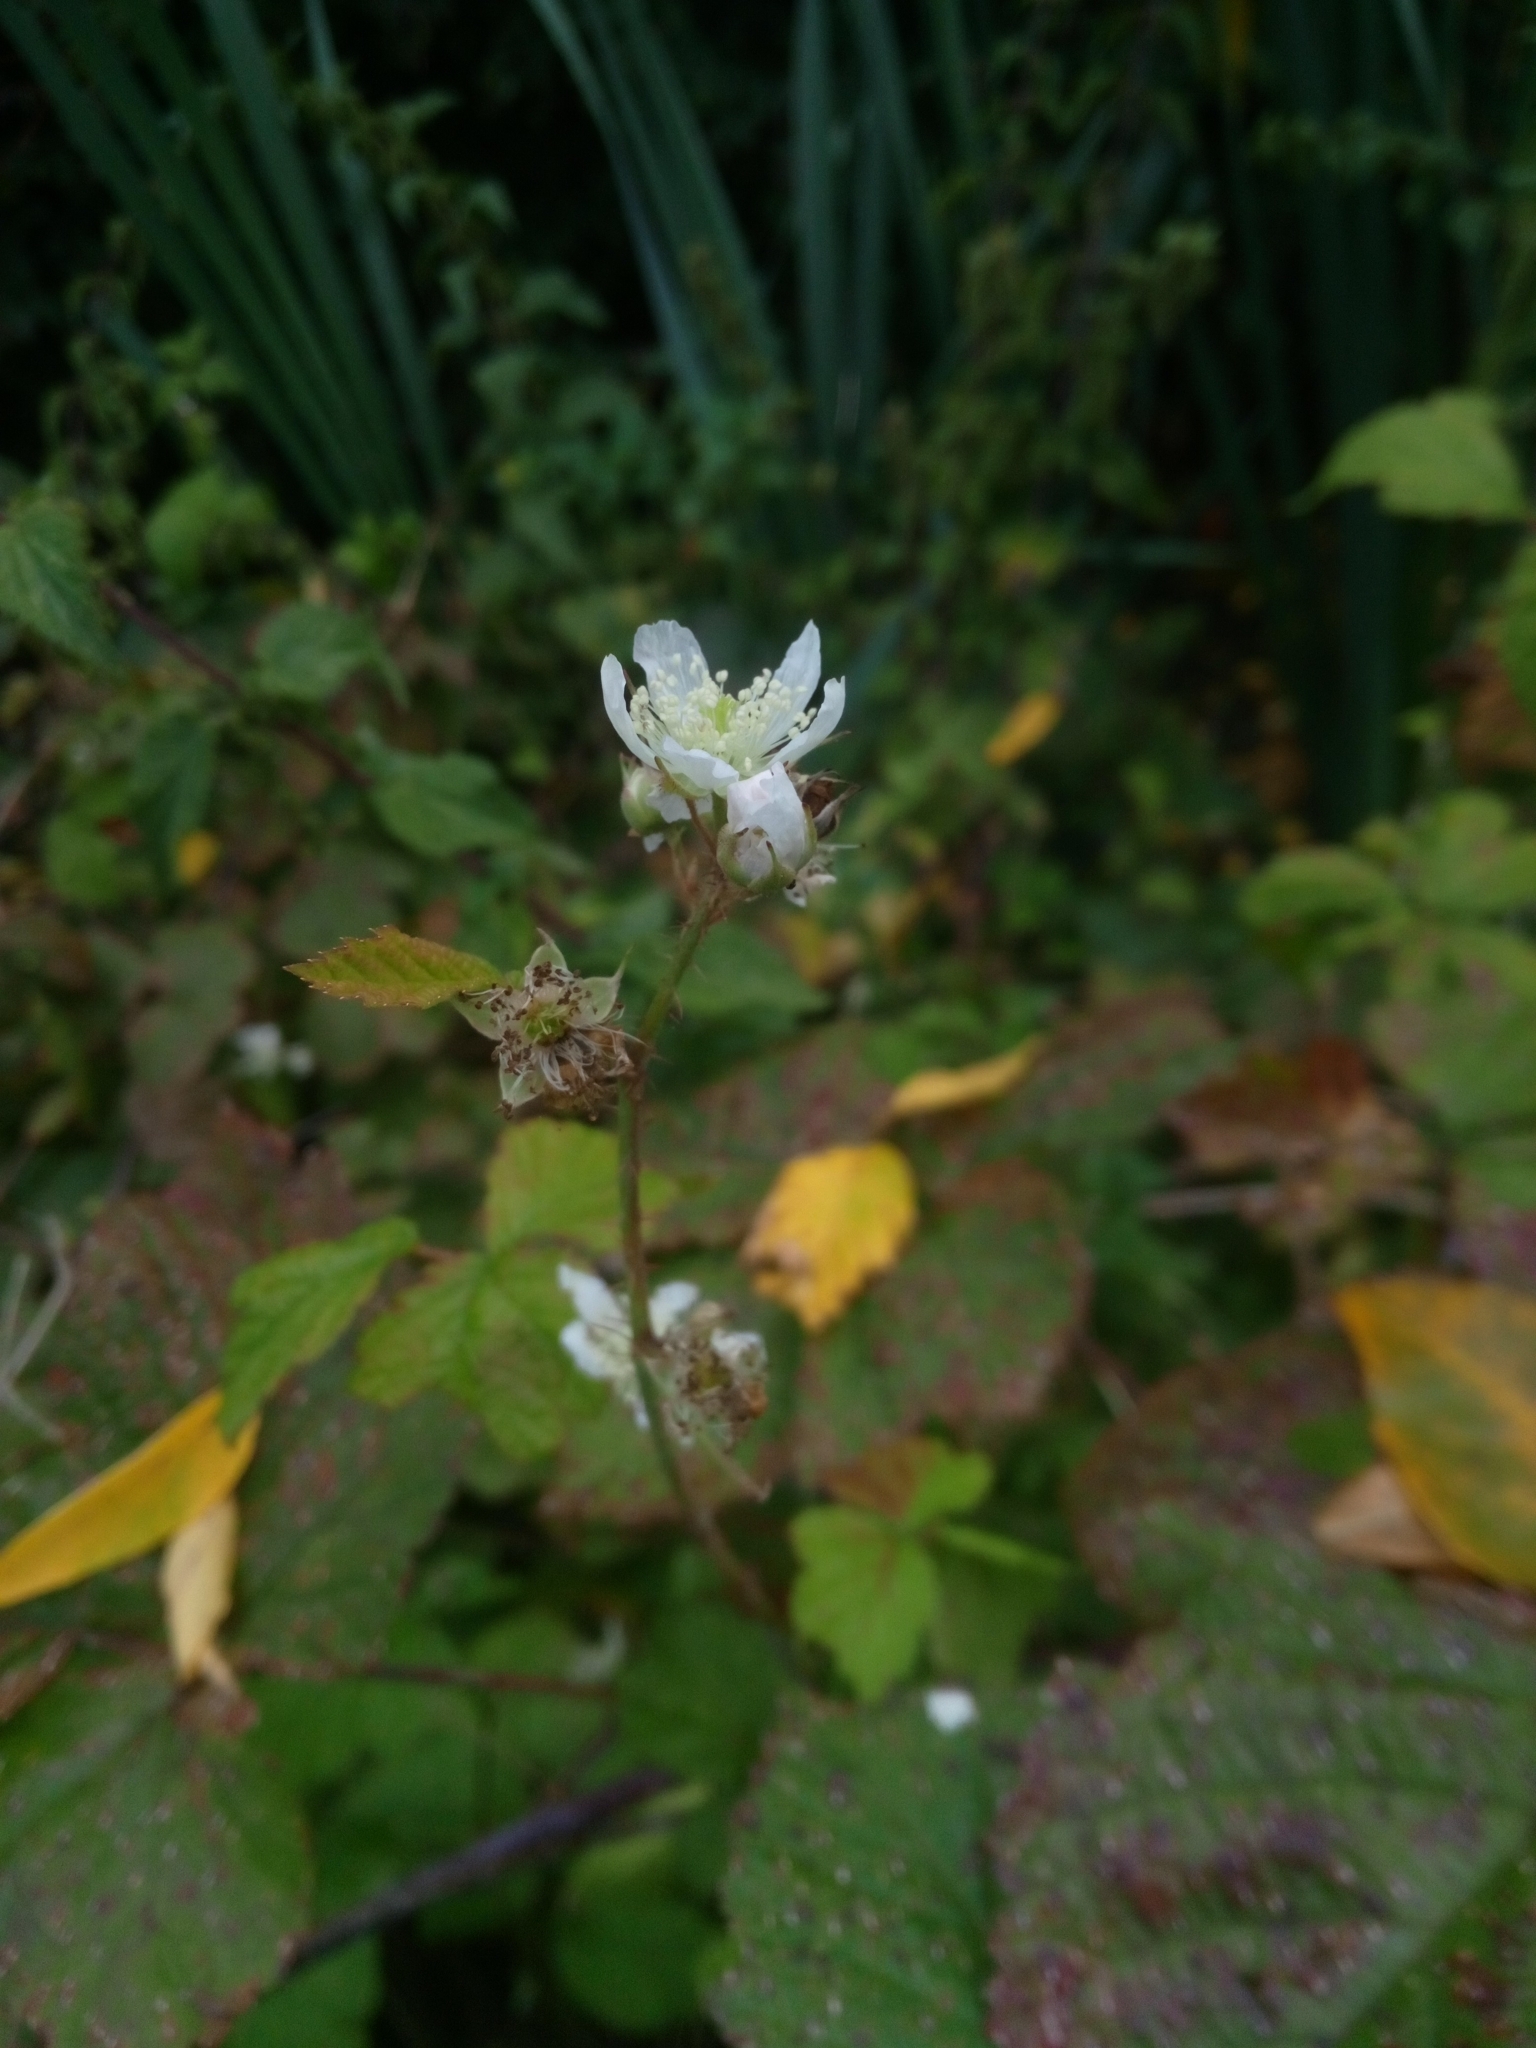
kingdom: Plantae
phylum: Tracheophyta
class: Magnoliopsida
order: Rosales
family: Rosaceae
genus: Rubus
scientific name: Rubus caesius
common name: Dewberry
